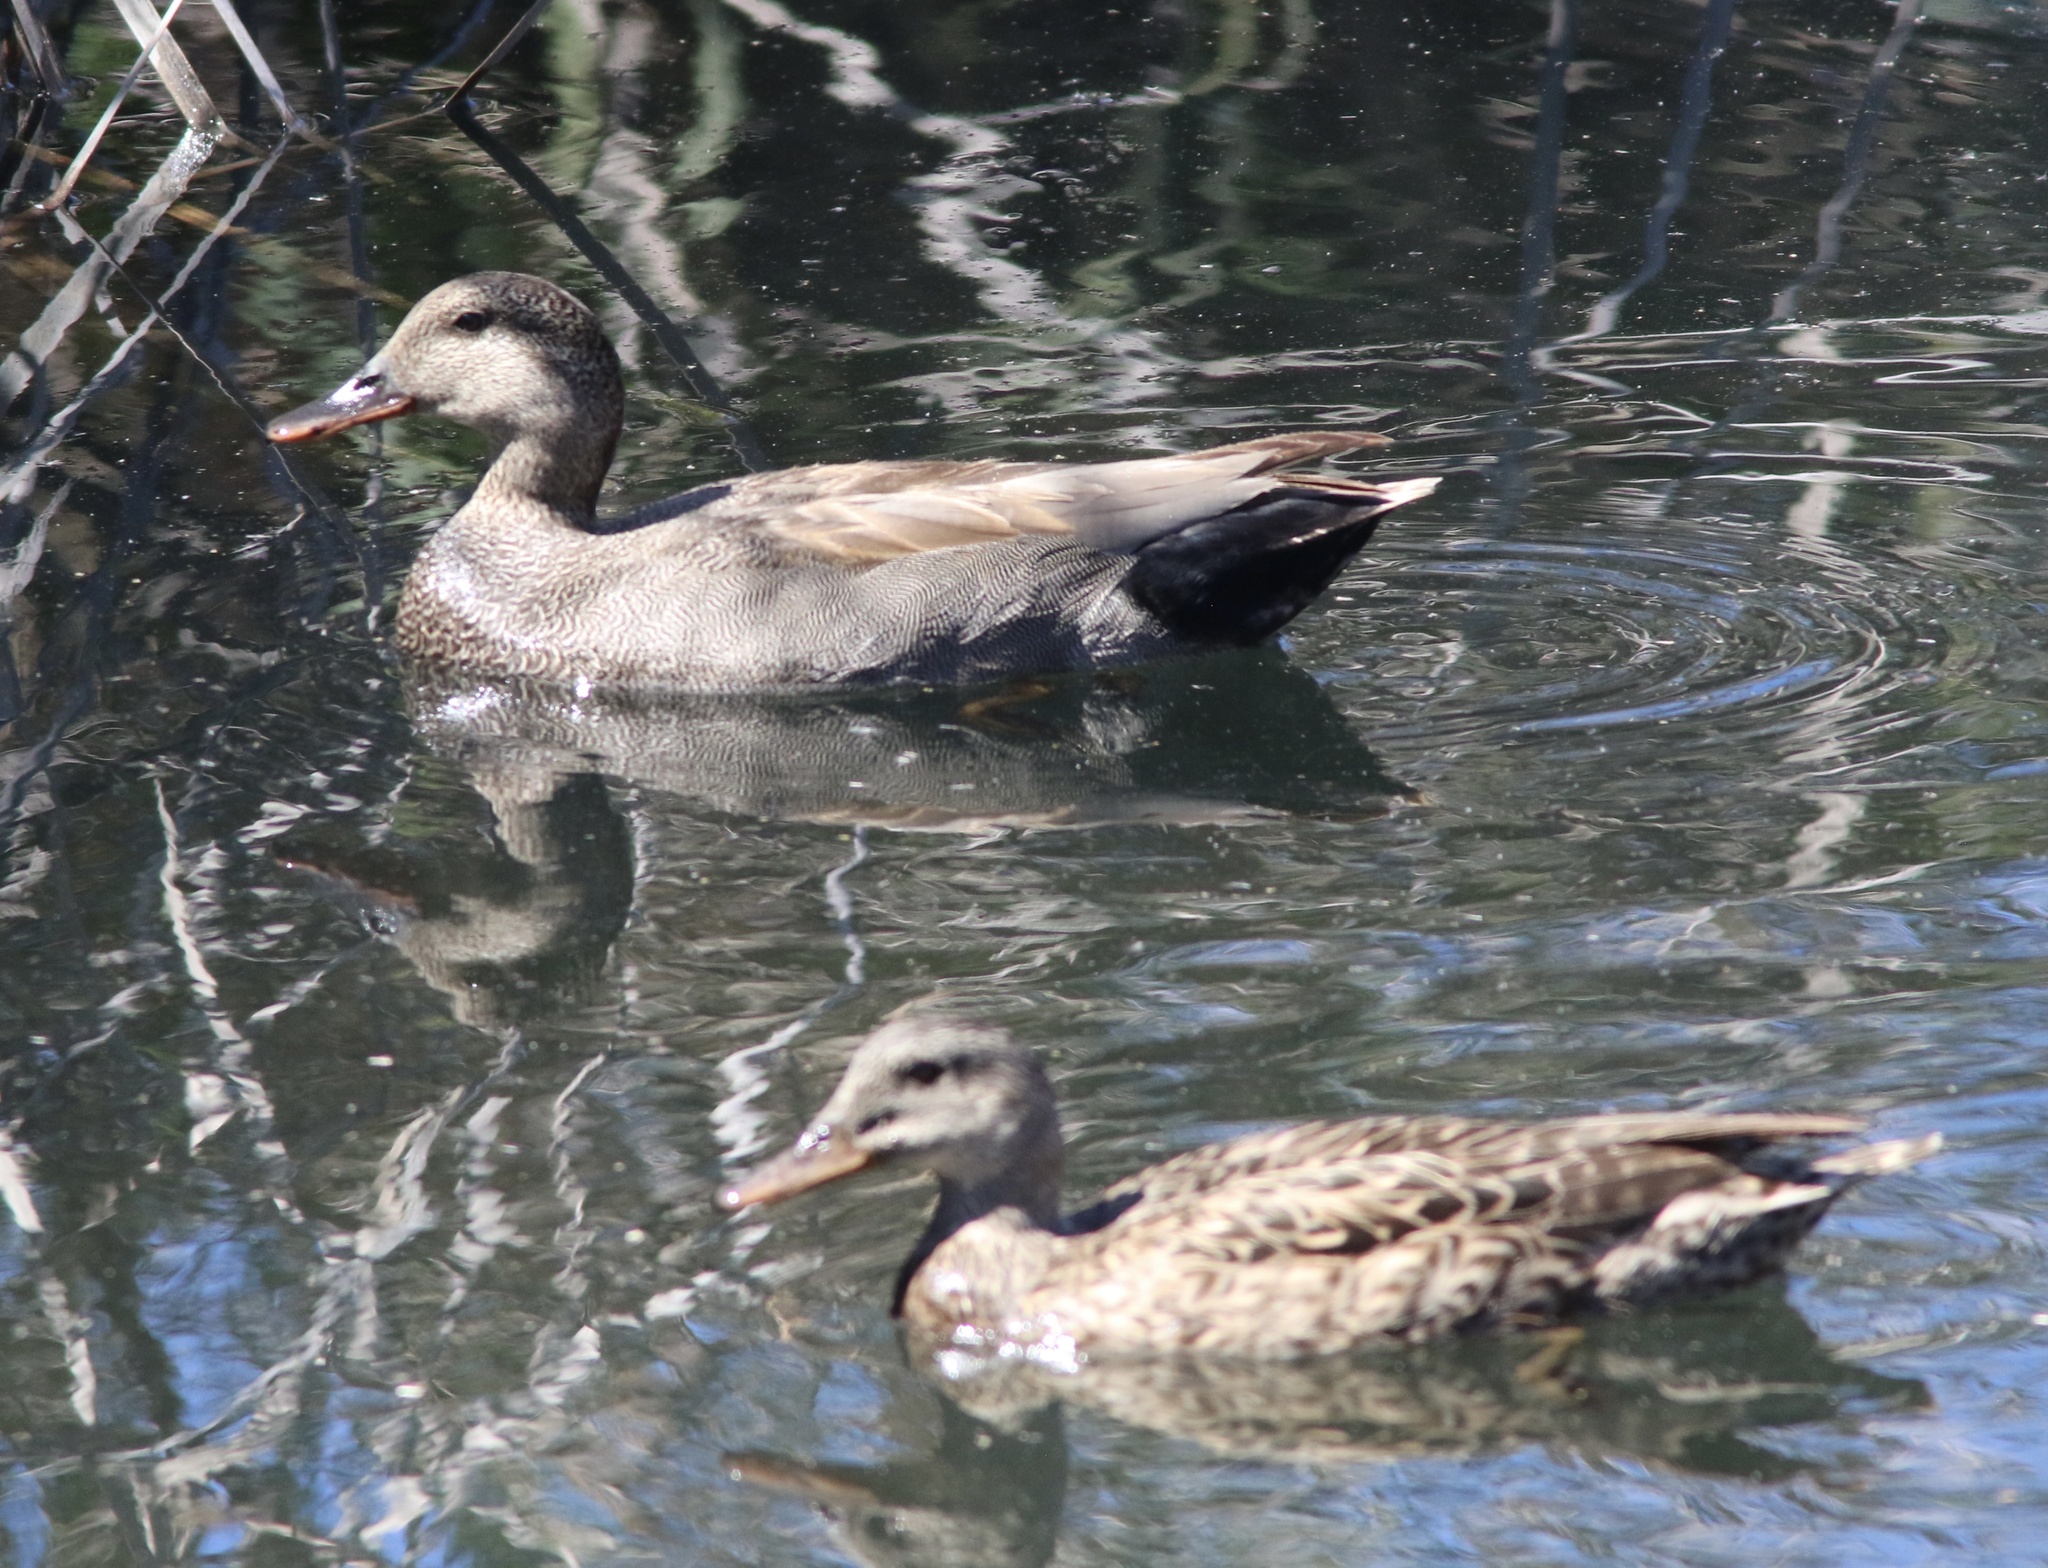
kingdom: Animalia
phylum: Chordata
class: Aves
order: Anseriformes
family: Anatidae
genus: Mareca
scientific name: Mareca strepera
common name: Gadwall
